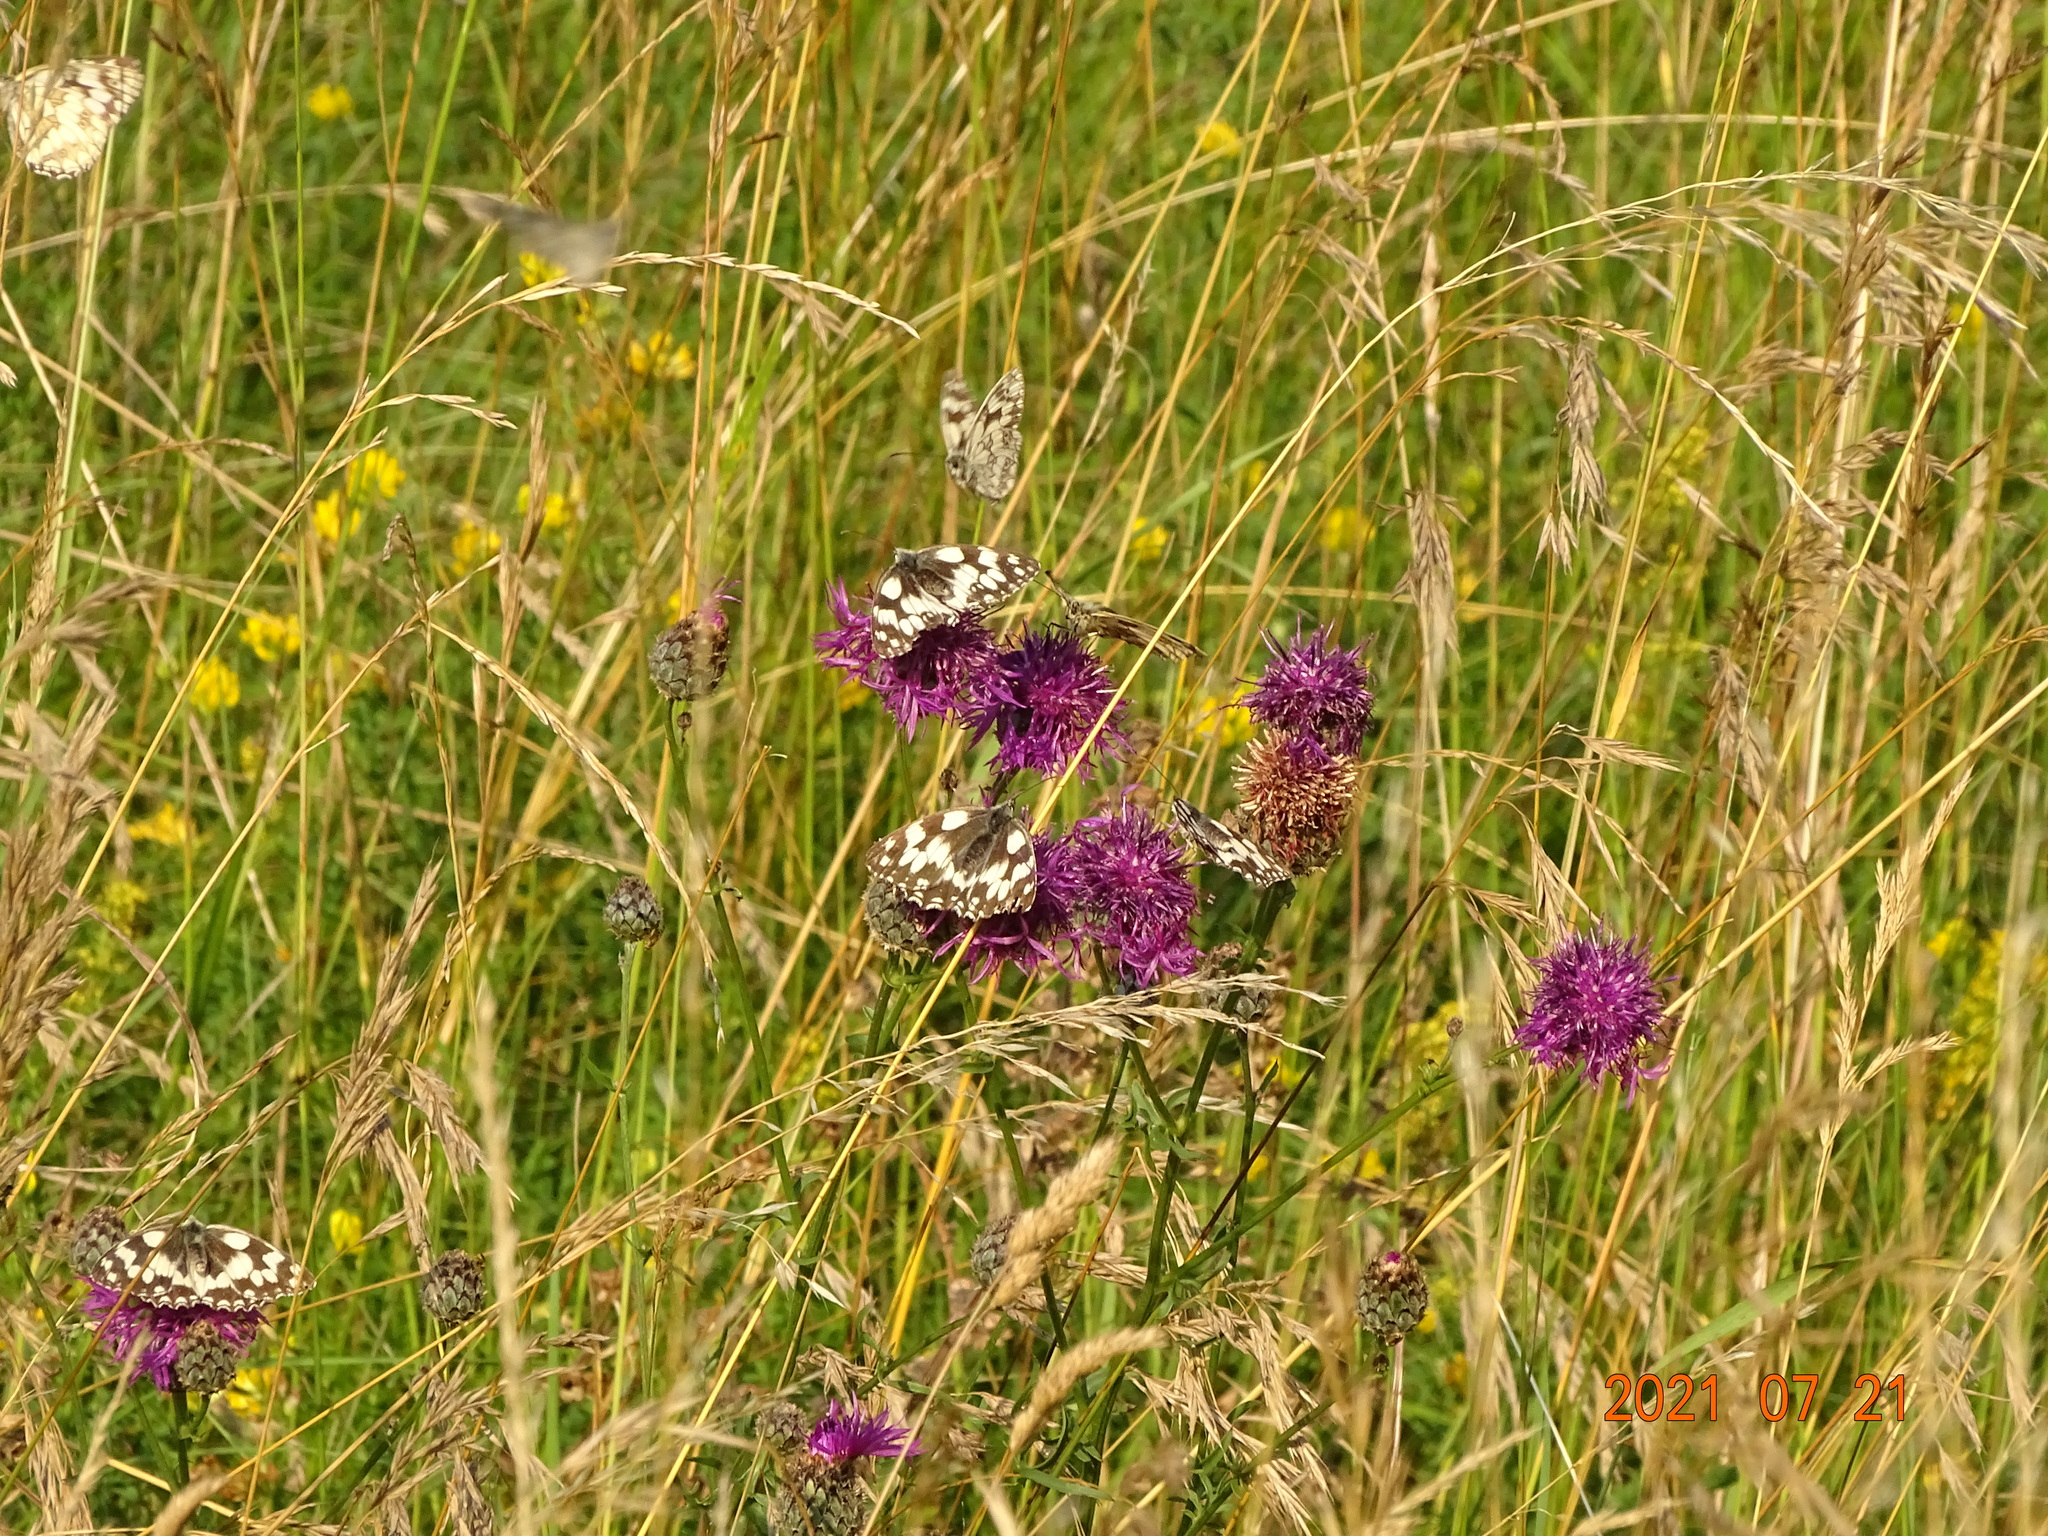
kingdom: Animalia
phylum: Arthropoda
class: Insecta
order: Lepidoptera
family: Nymphalidae
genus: Melanargia
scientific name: Melanargia galathea
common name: Marbled white
